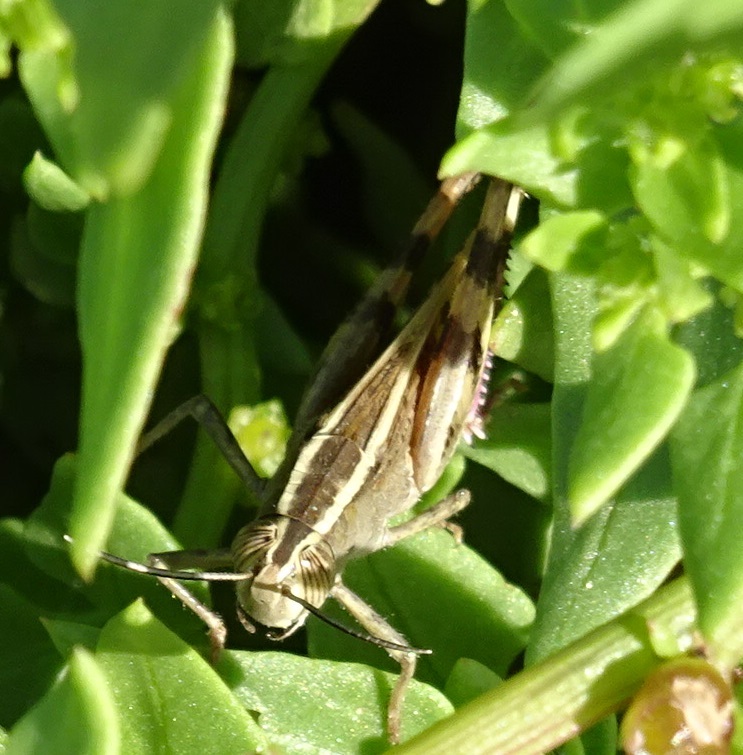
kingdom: Animalia
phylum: Arthropoda
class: Insecta
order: Orthoptera
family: Acrididae
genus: Heteracris
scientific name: Heteracris littoralis
